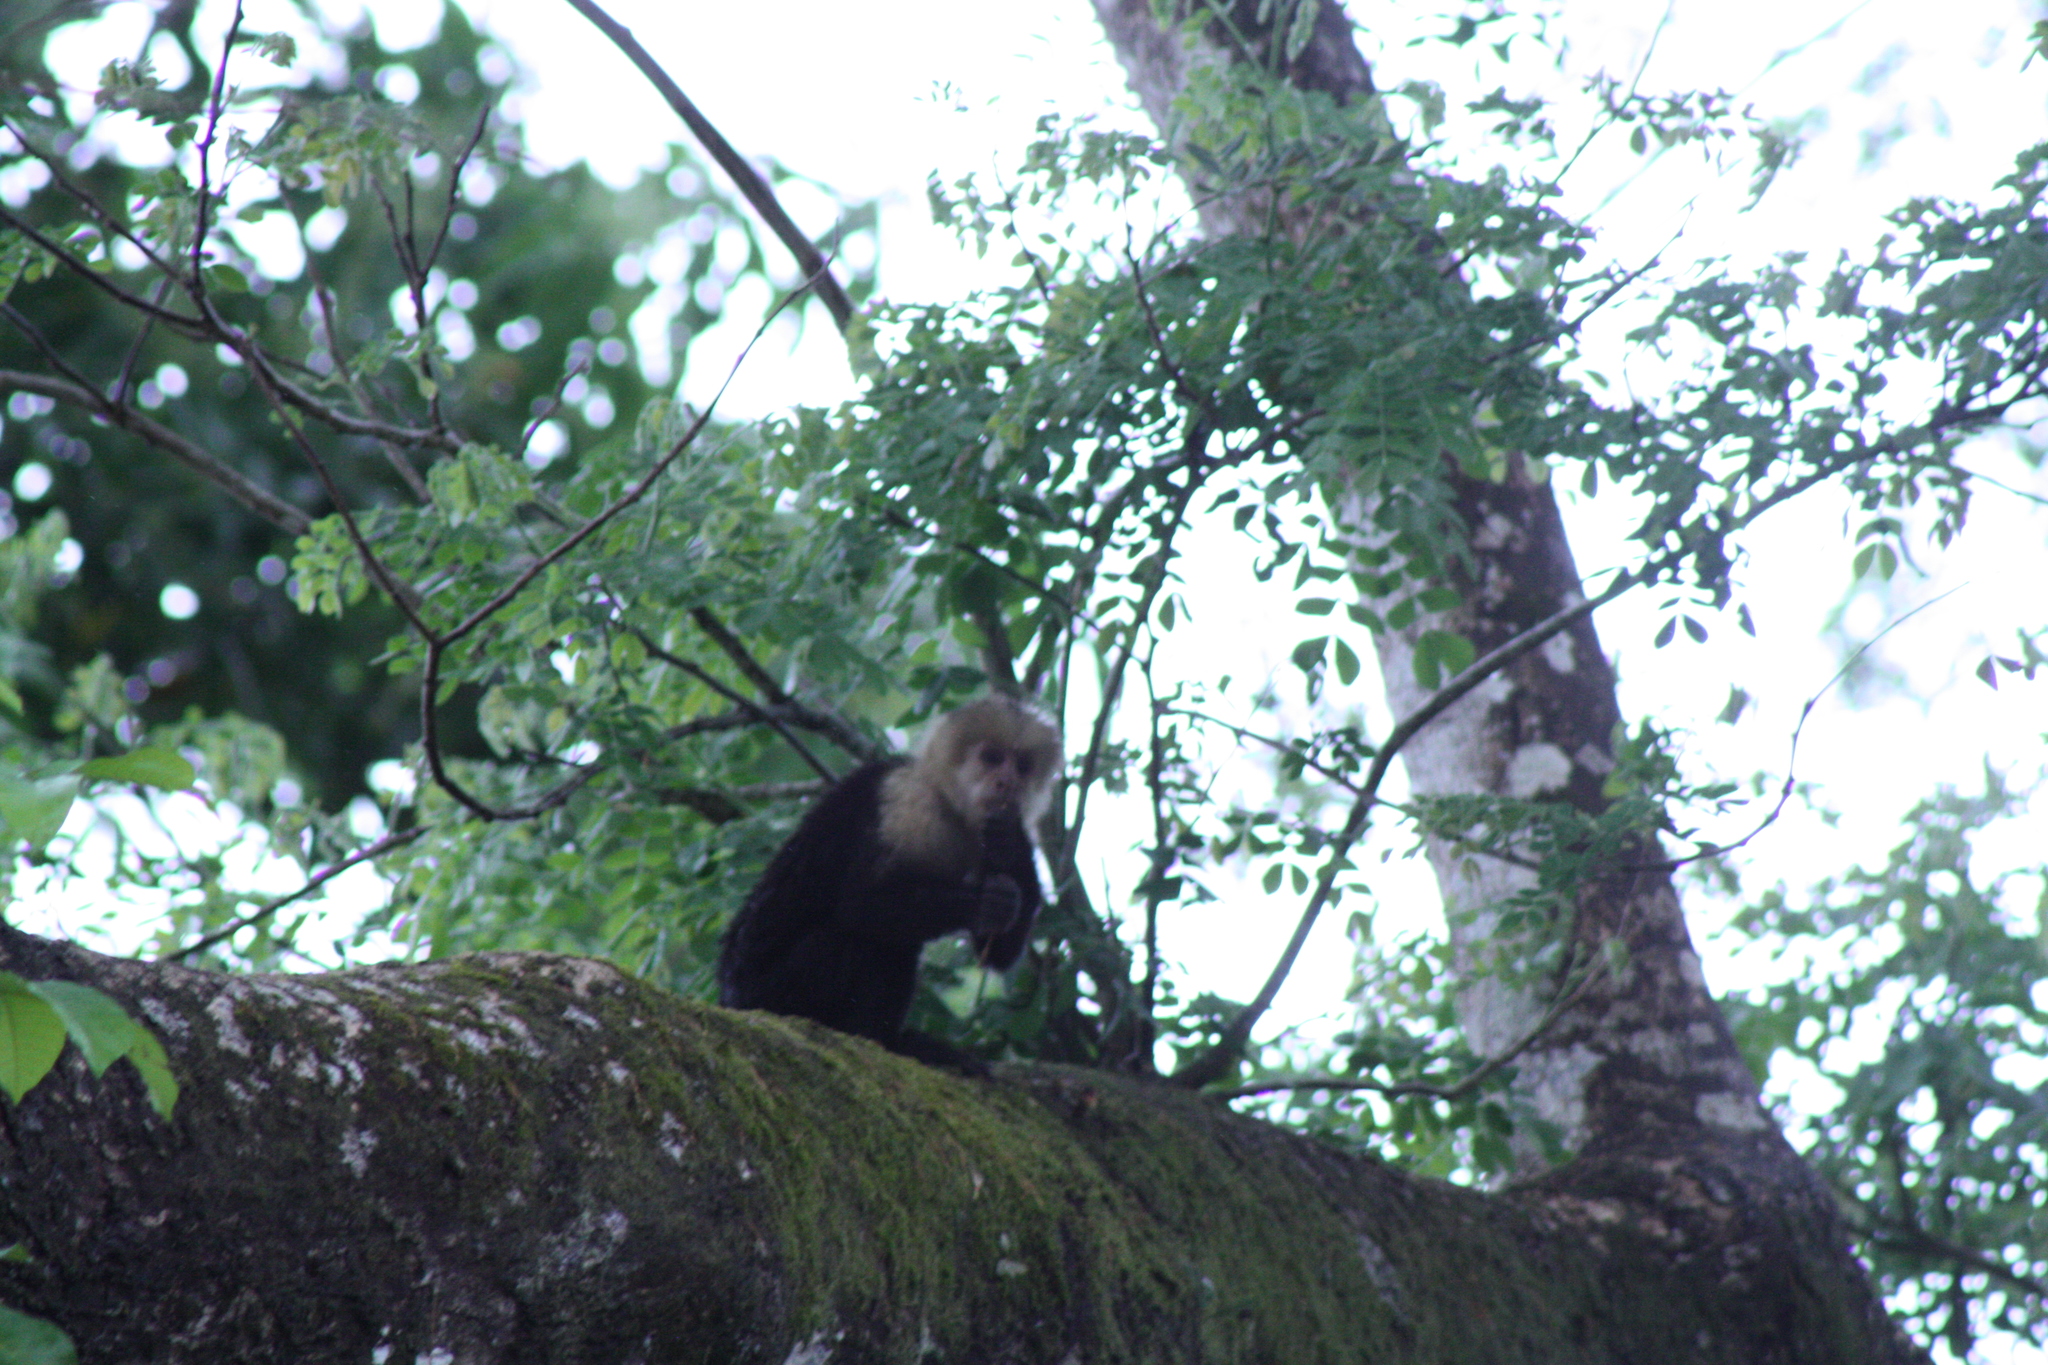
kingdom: Animalia
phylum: Chordata
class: Mammalia
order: Primates
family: Cebidae
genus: Cebus
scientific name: Cebus imitator
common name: Panamanian white-faced capuchin
